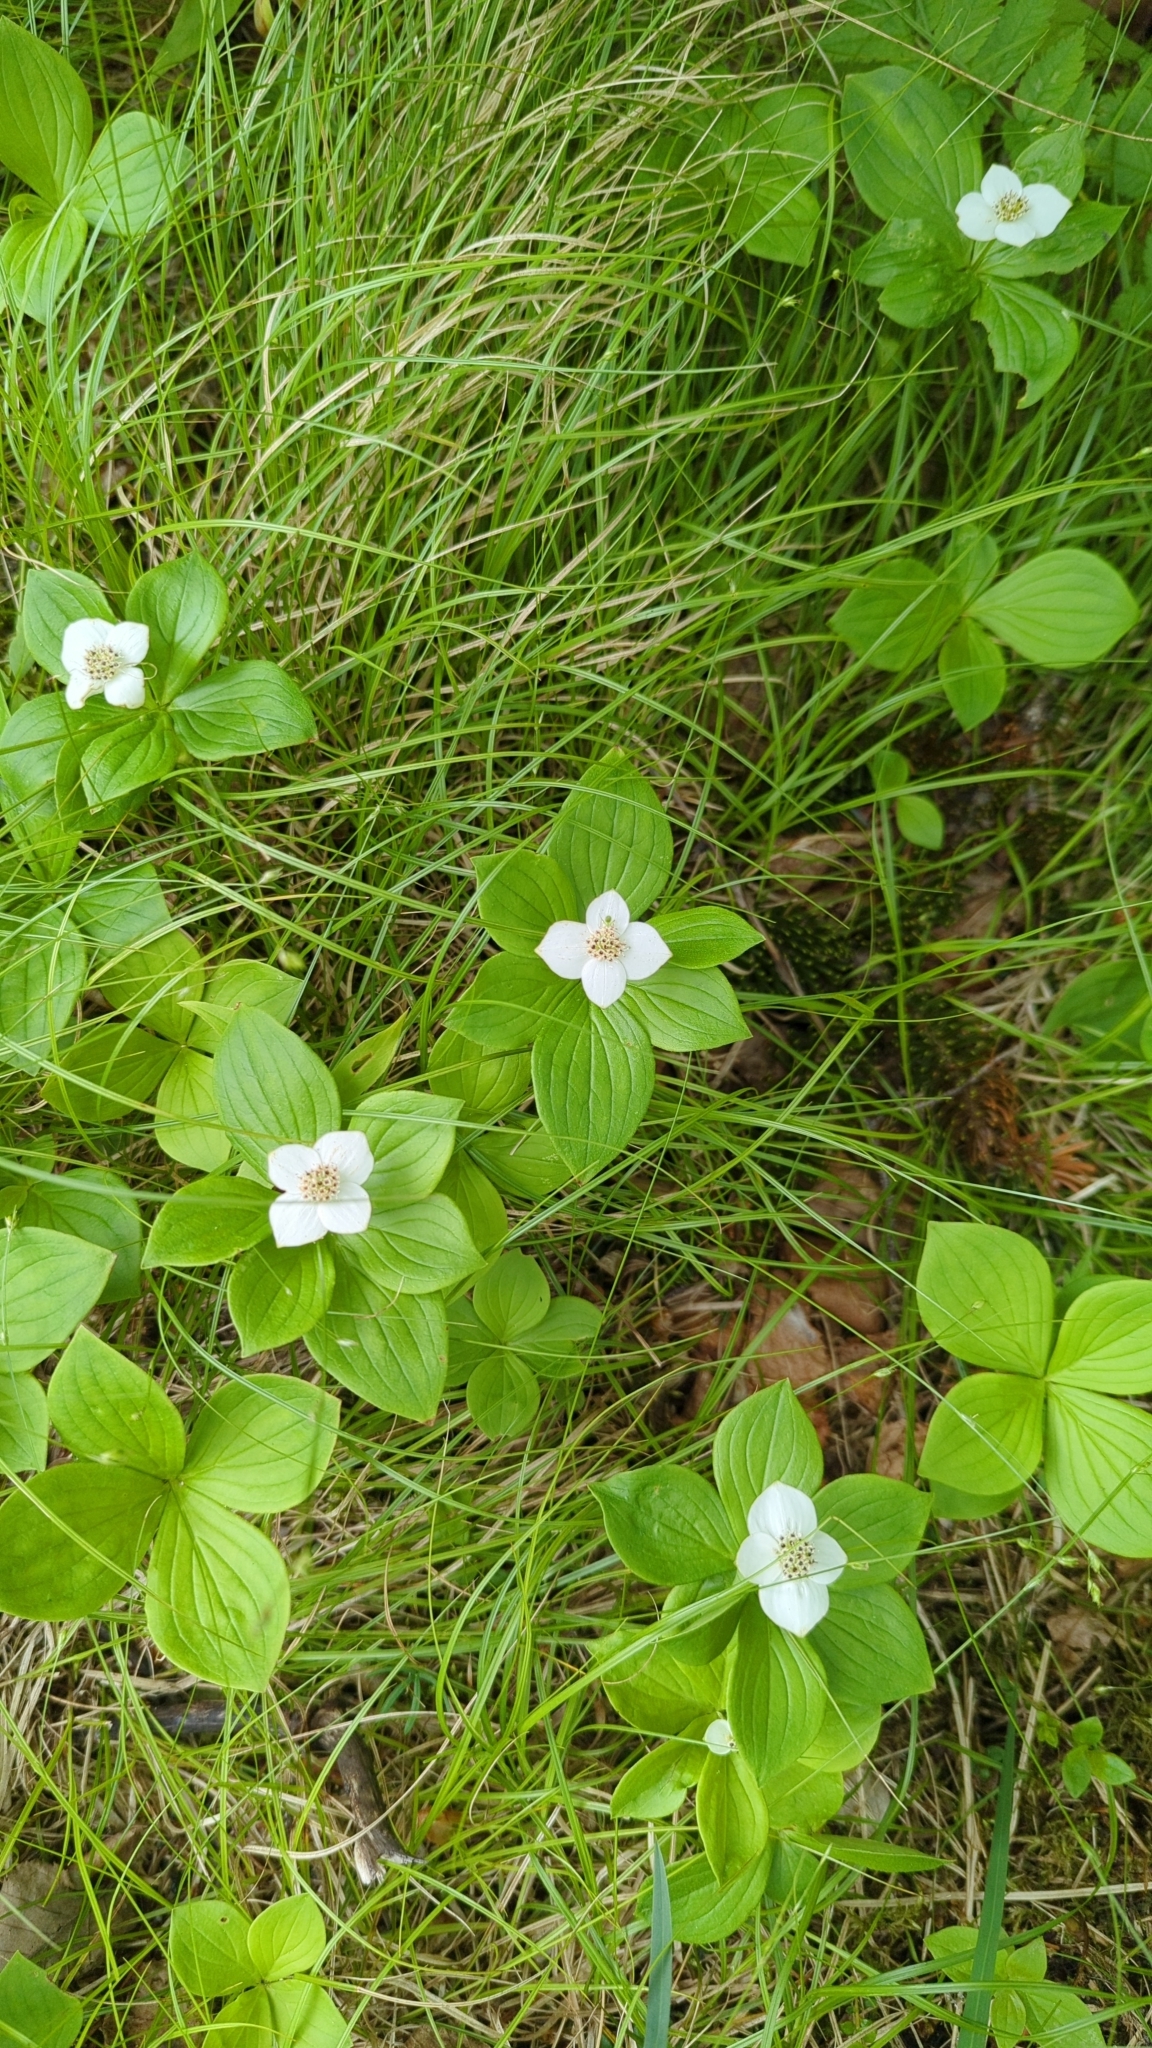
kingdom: Plantae
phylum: Tracheophyta
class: Magnoliopsida
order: Cornales
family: Cornaceae
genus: Cornus
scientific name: Cornus canadensis
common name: Creeping dogwood
